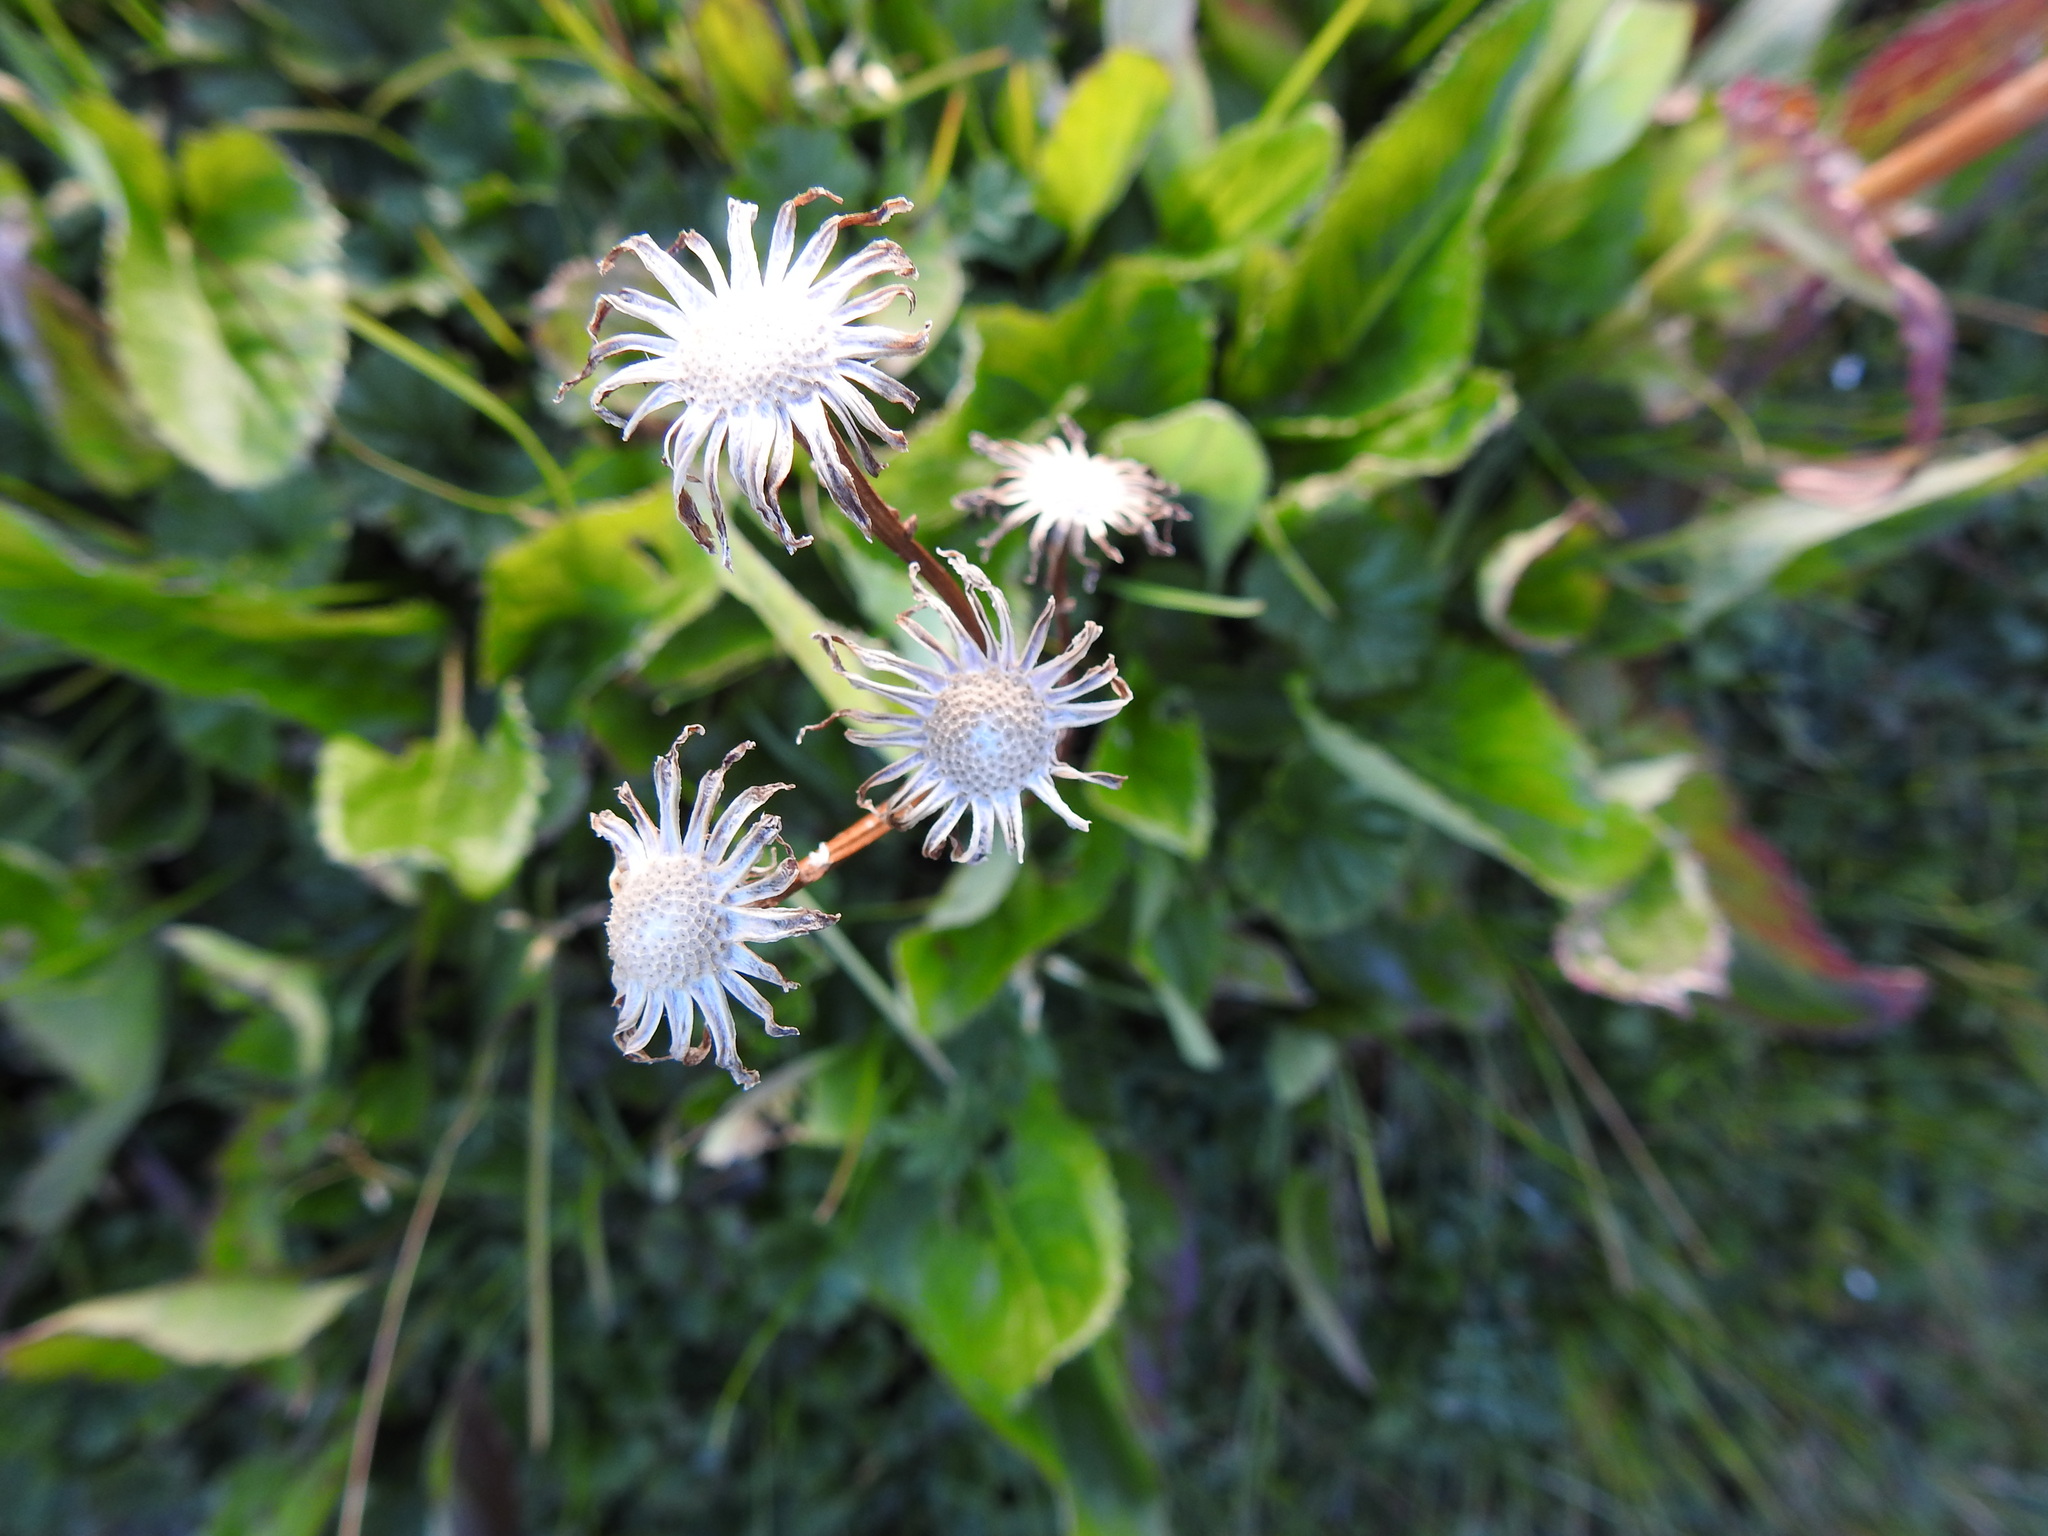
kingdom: Plantae
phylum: Tracheophyta
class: Magnoliopsida
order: Asterales
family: Asteraceae
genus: Senecio
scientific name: Senecio smithii
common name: Magellan ragwort
